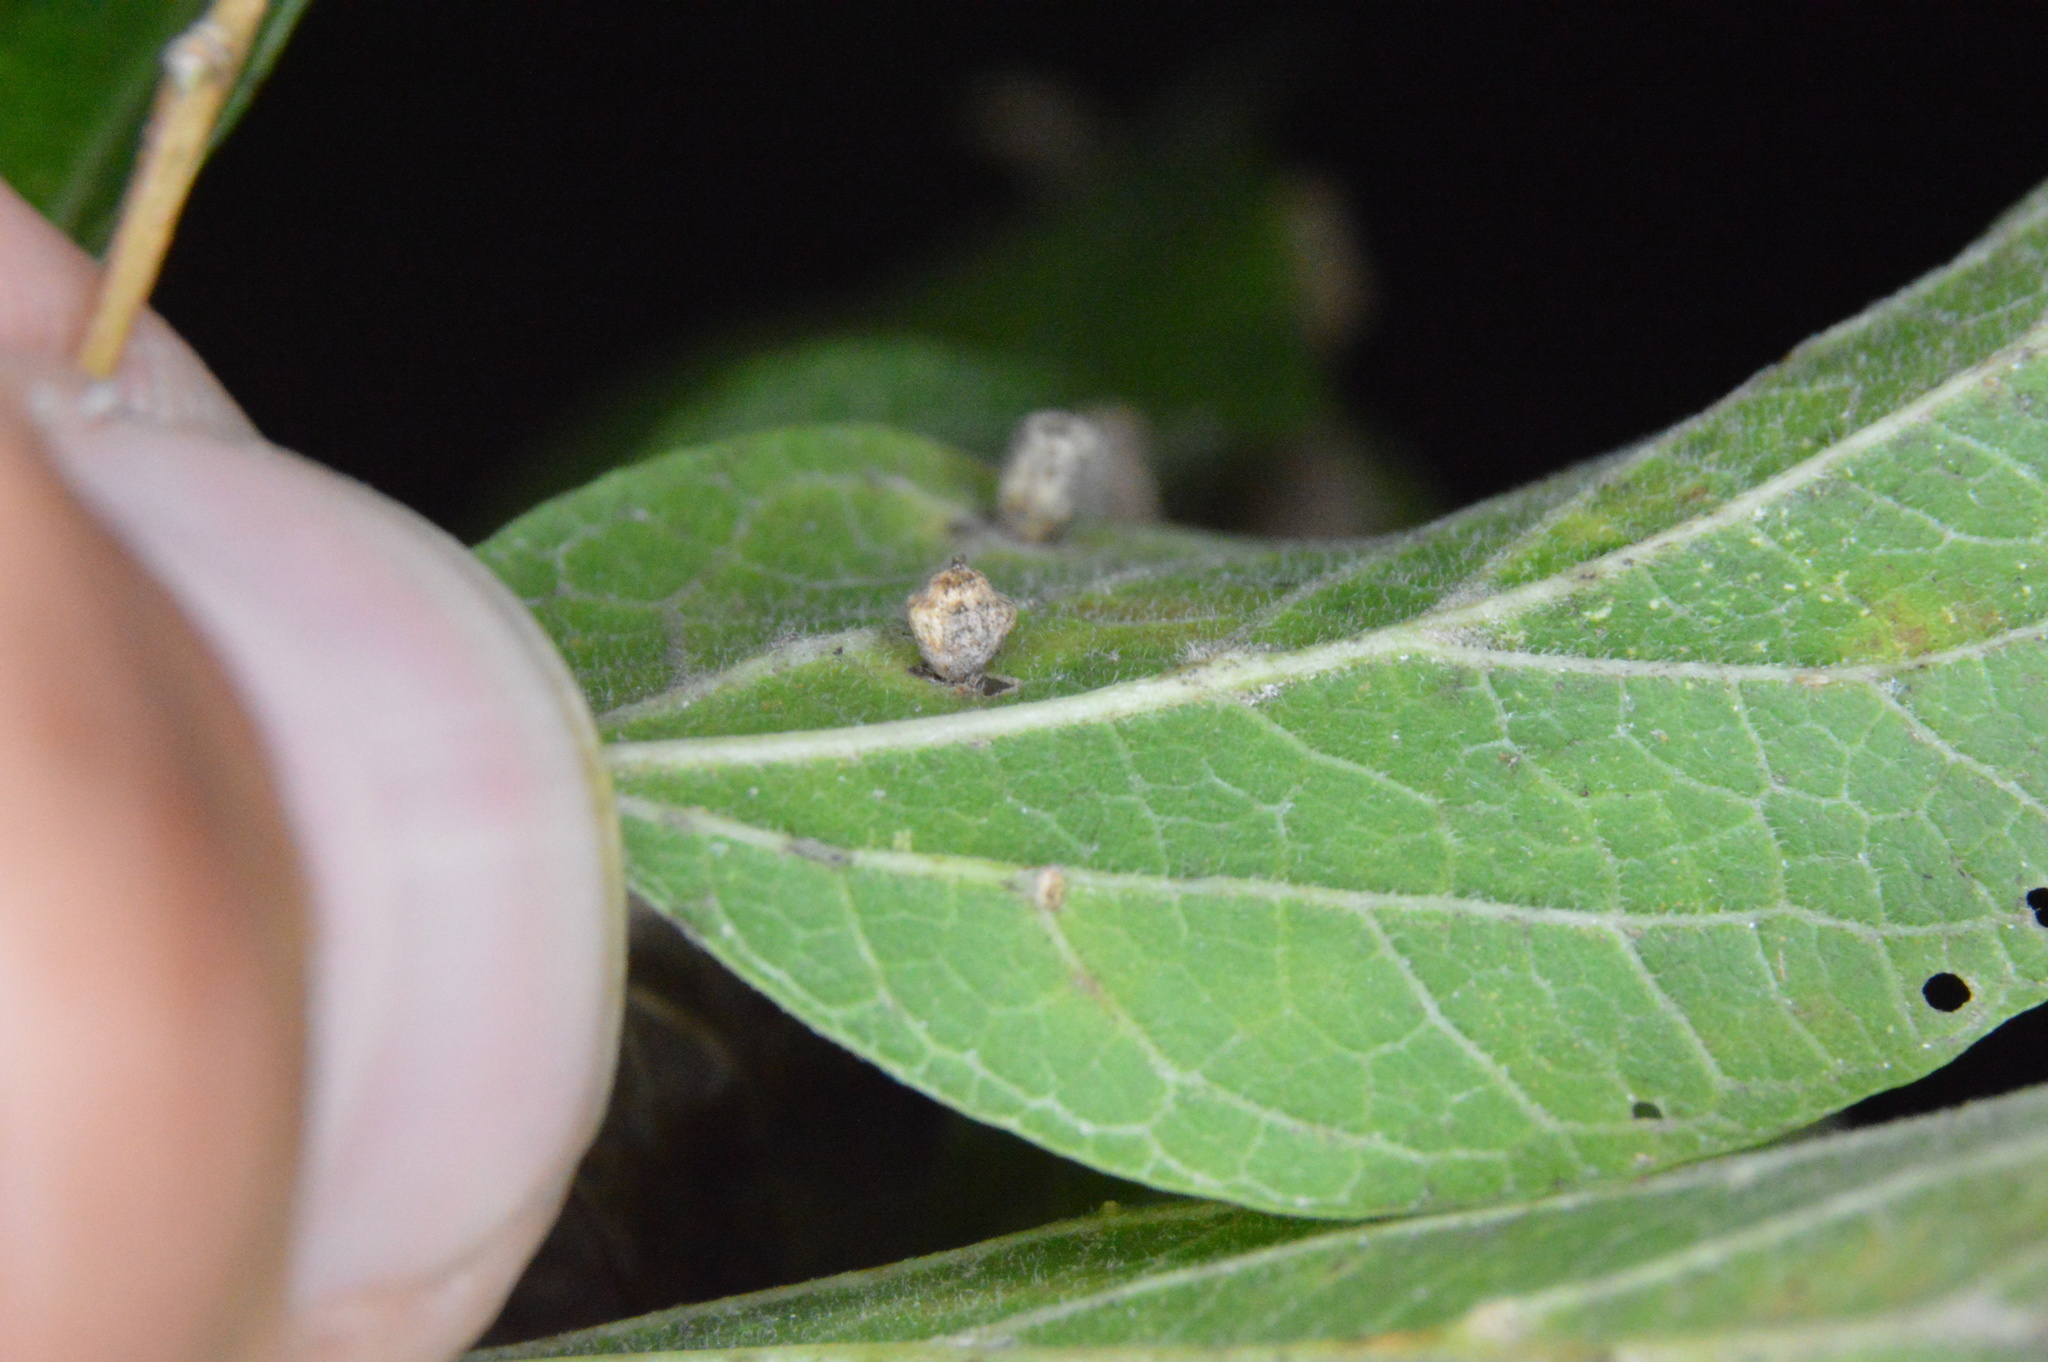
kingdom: Animalia
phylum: Arthropoda
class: Insecta
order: Diptera
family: Cecidomyiidae
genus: Celticecis
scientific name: Celticecis globosa
